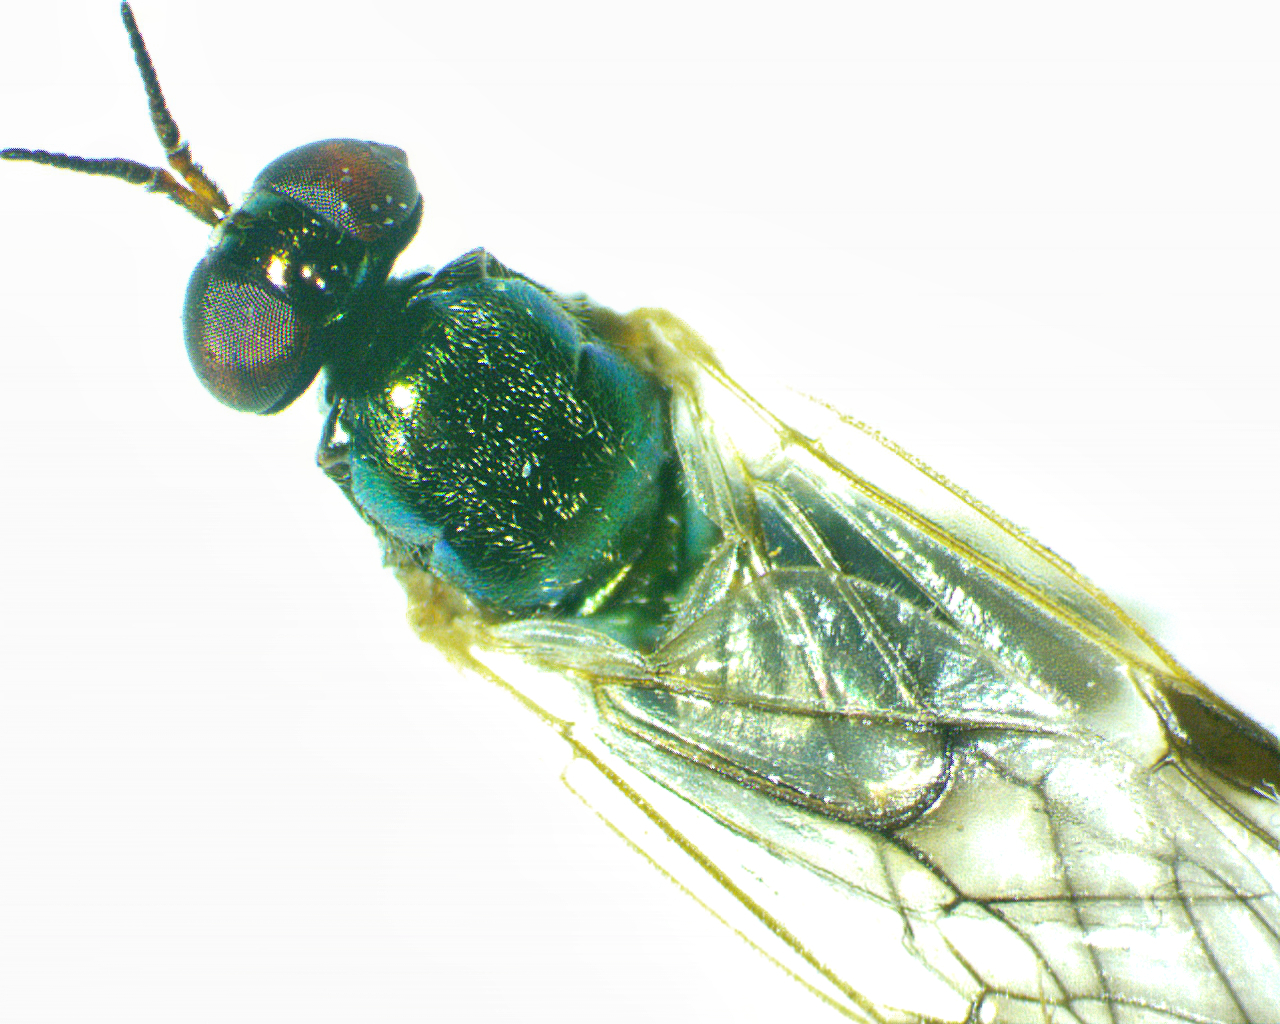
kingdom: Animalia
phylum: Arthropoda
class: Insecta
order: Diptera
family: Stratiomyidae
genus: Actina
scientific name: Actina viridis
